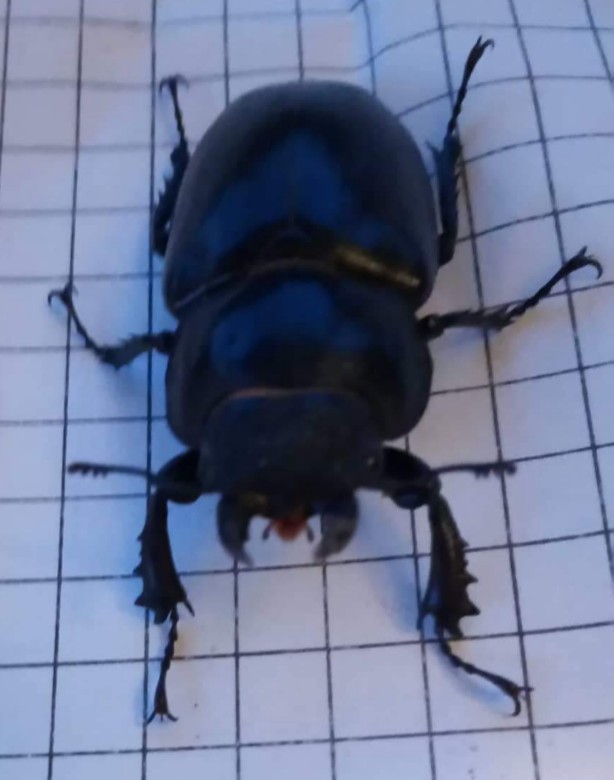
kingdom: Animalia
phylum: Arthropoda
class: Insecta
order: Coleoptera
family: Lucanidae
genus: Lucanus
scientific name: Lucanus cervus
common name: Stag beetle
